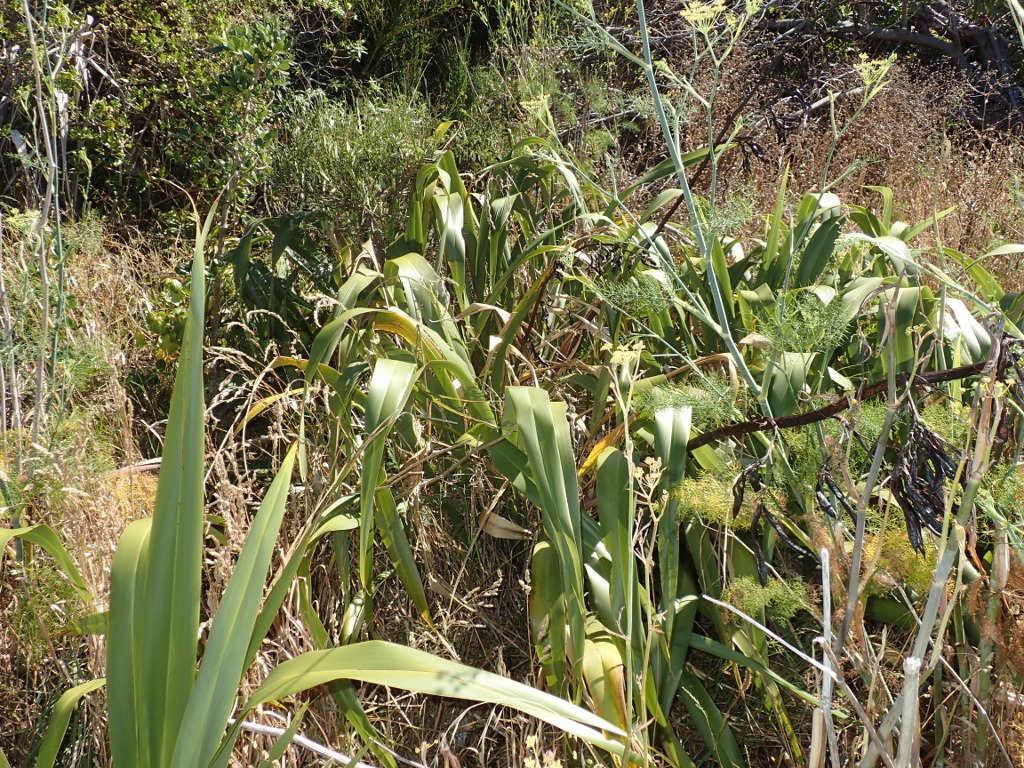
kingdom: Plantae
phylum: Tracheophyta
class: Liliopsida
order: Asparagales
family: Asphodelaceae
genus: Phormium
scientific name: Phormium colensoi
